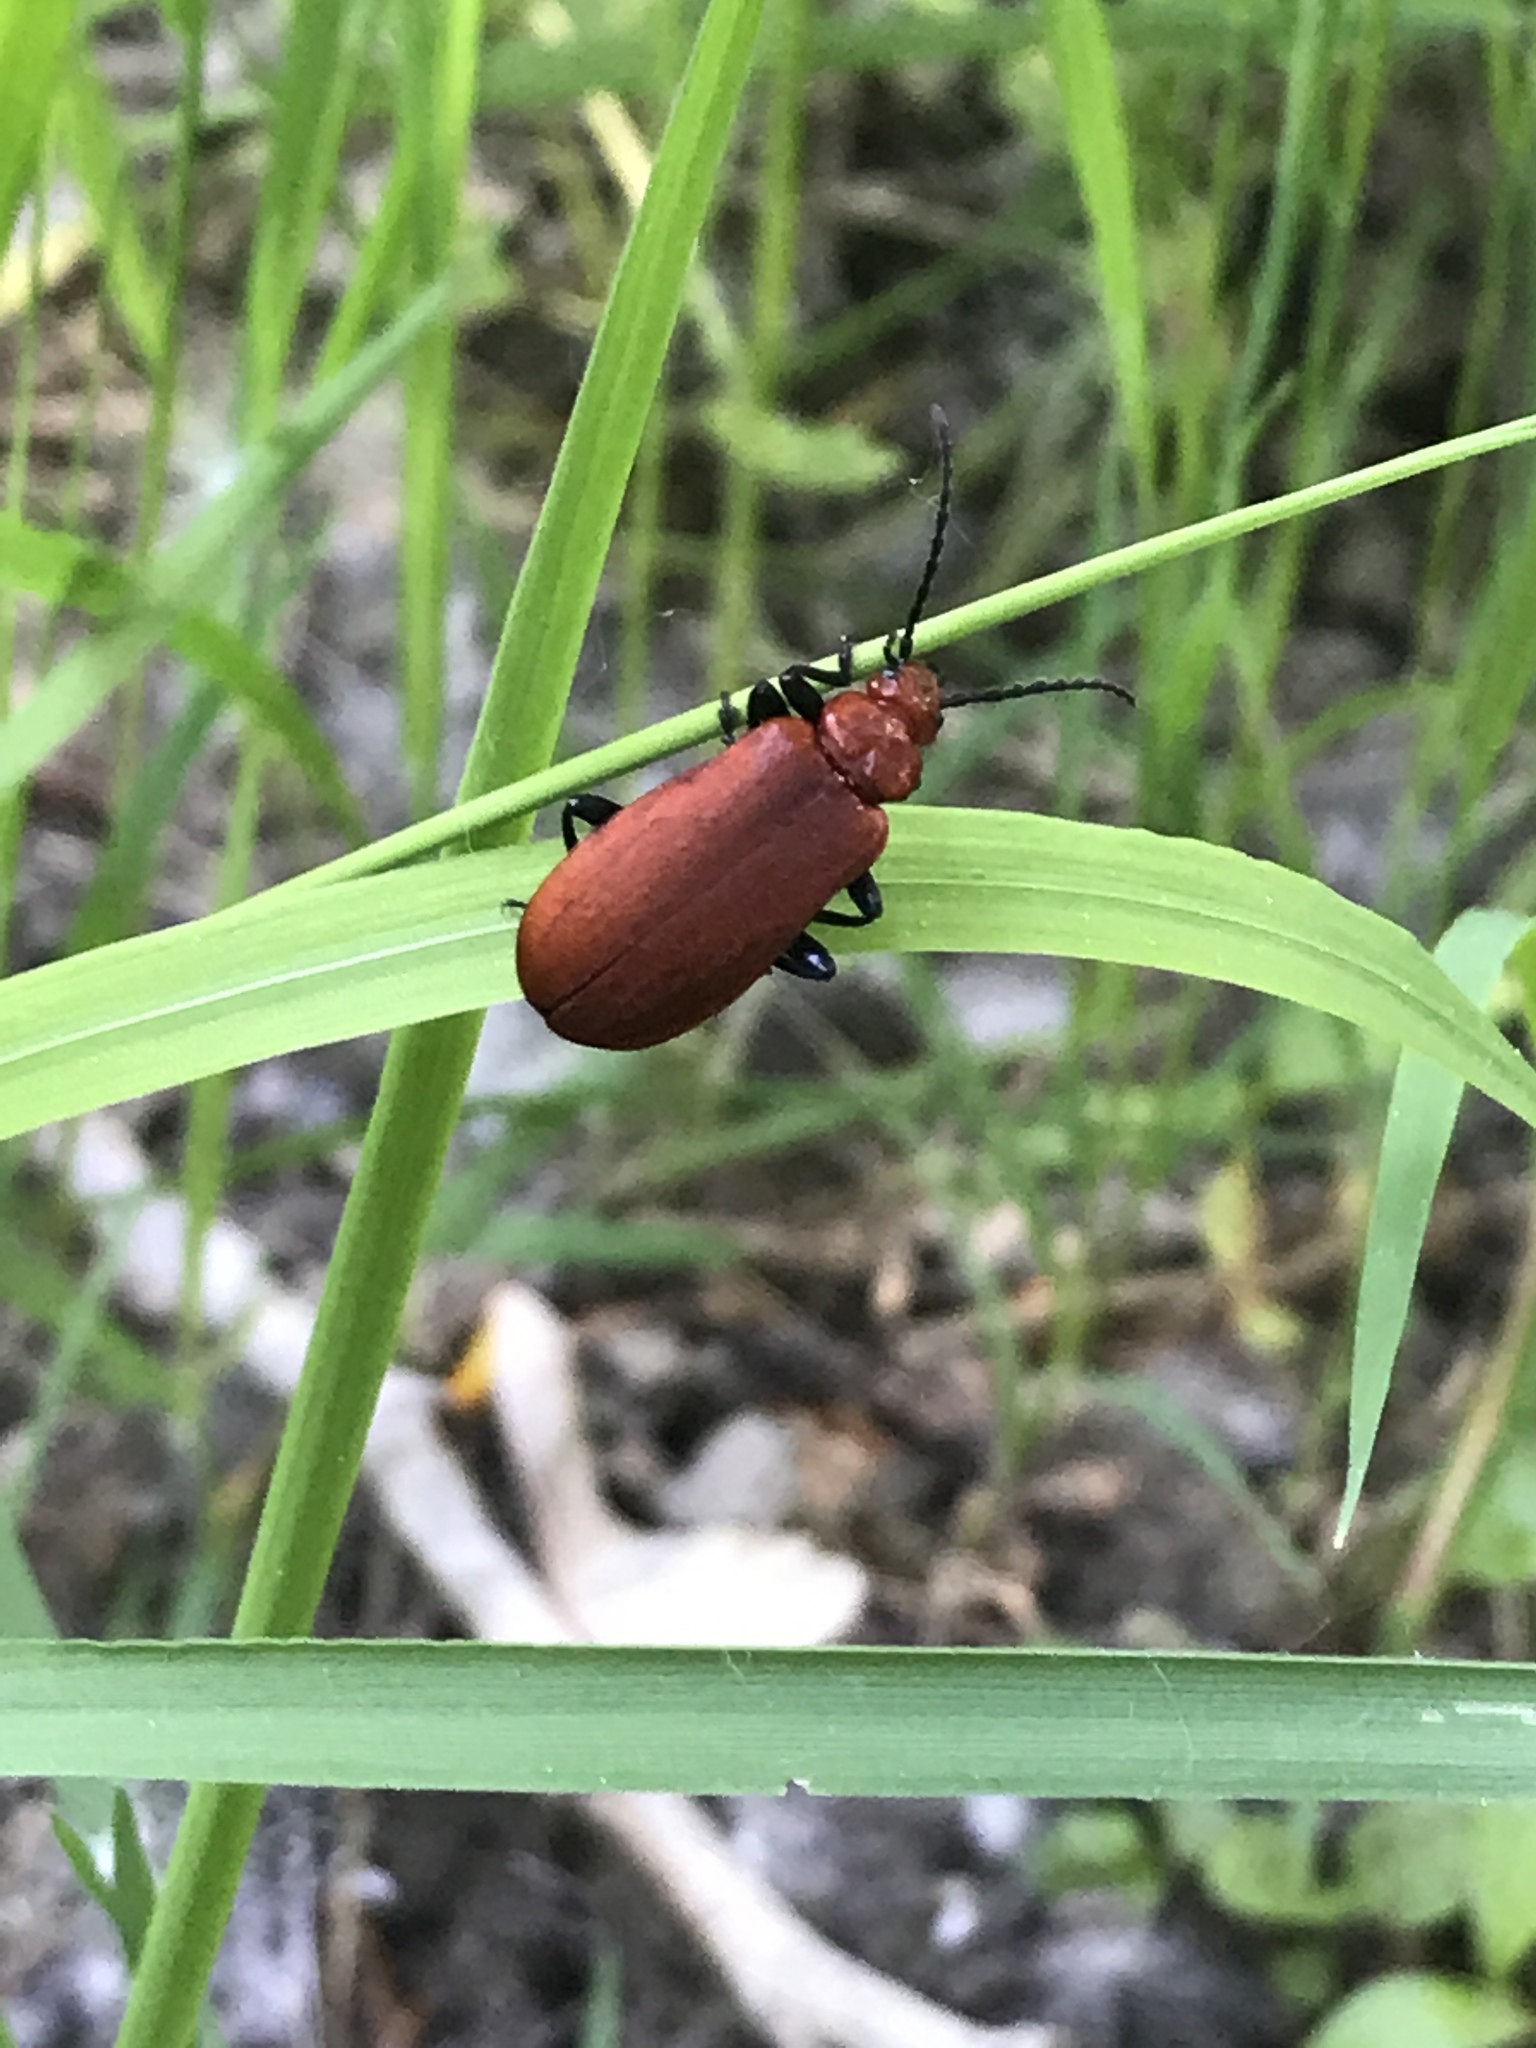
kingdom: Animalia
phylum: Arthropoda
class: Insecta
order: Coleoptera
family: Pyrochroidae
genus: Pyrochroa
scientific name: Pyrochroa serraticornis
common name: Red-headed cardinal beetle
